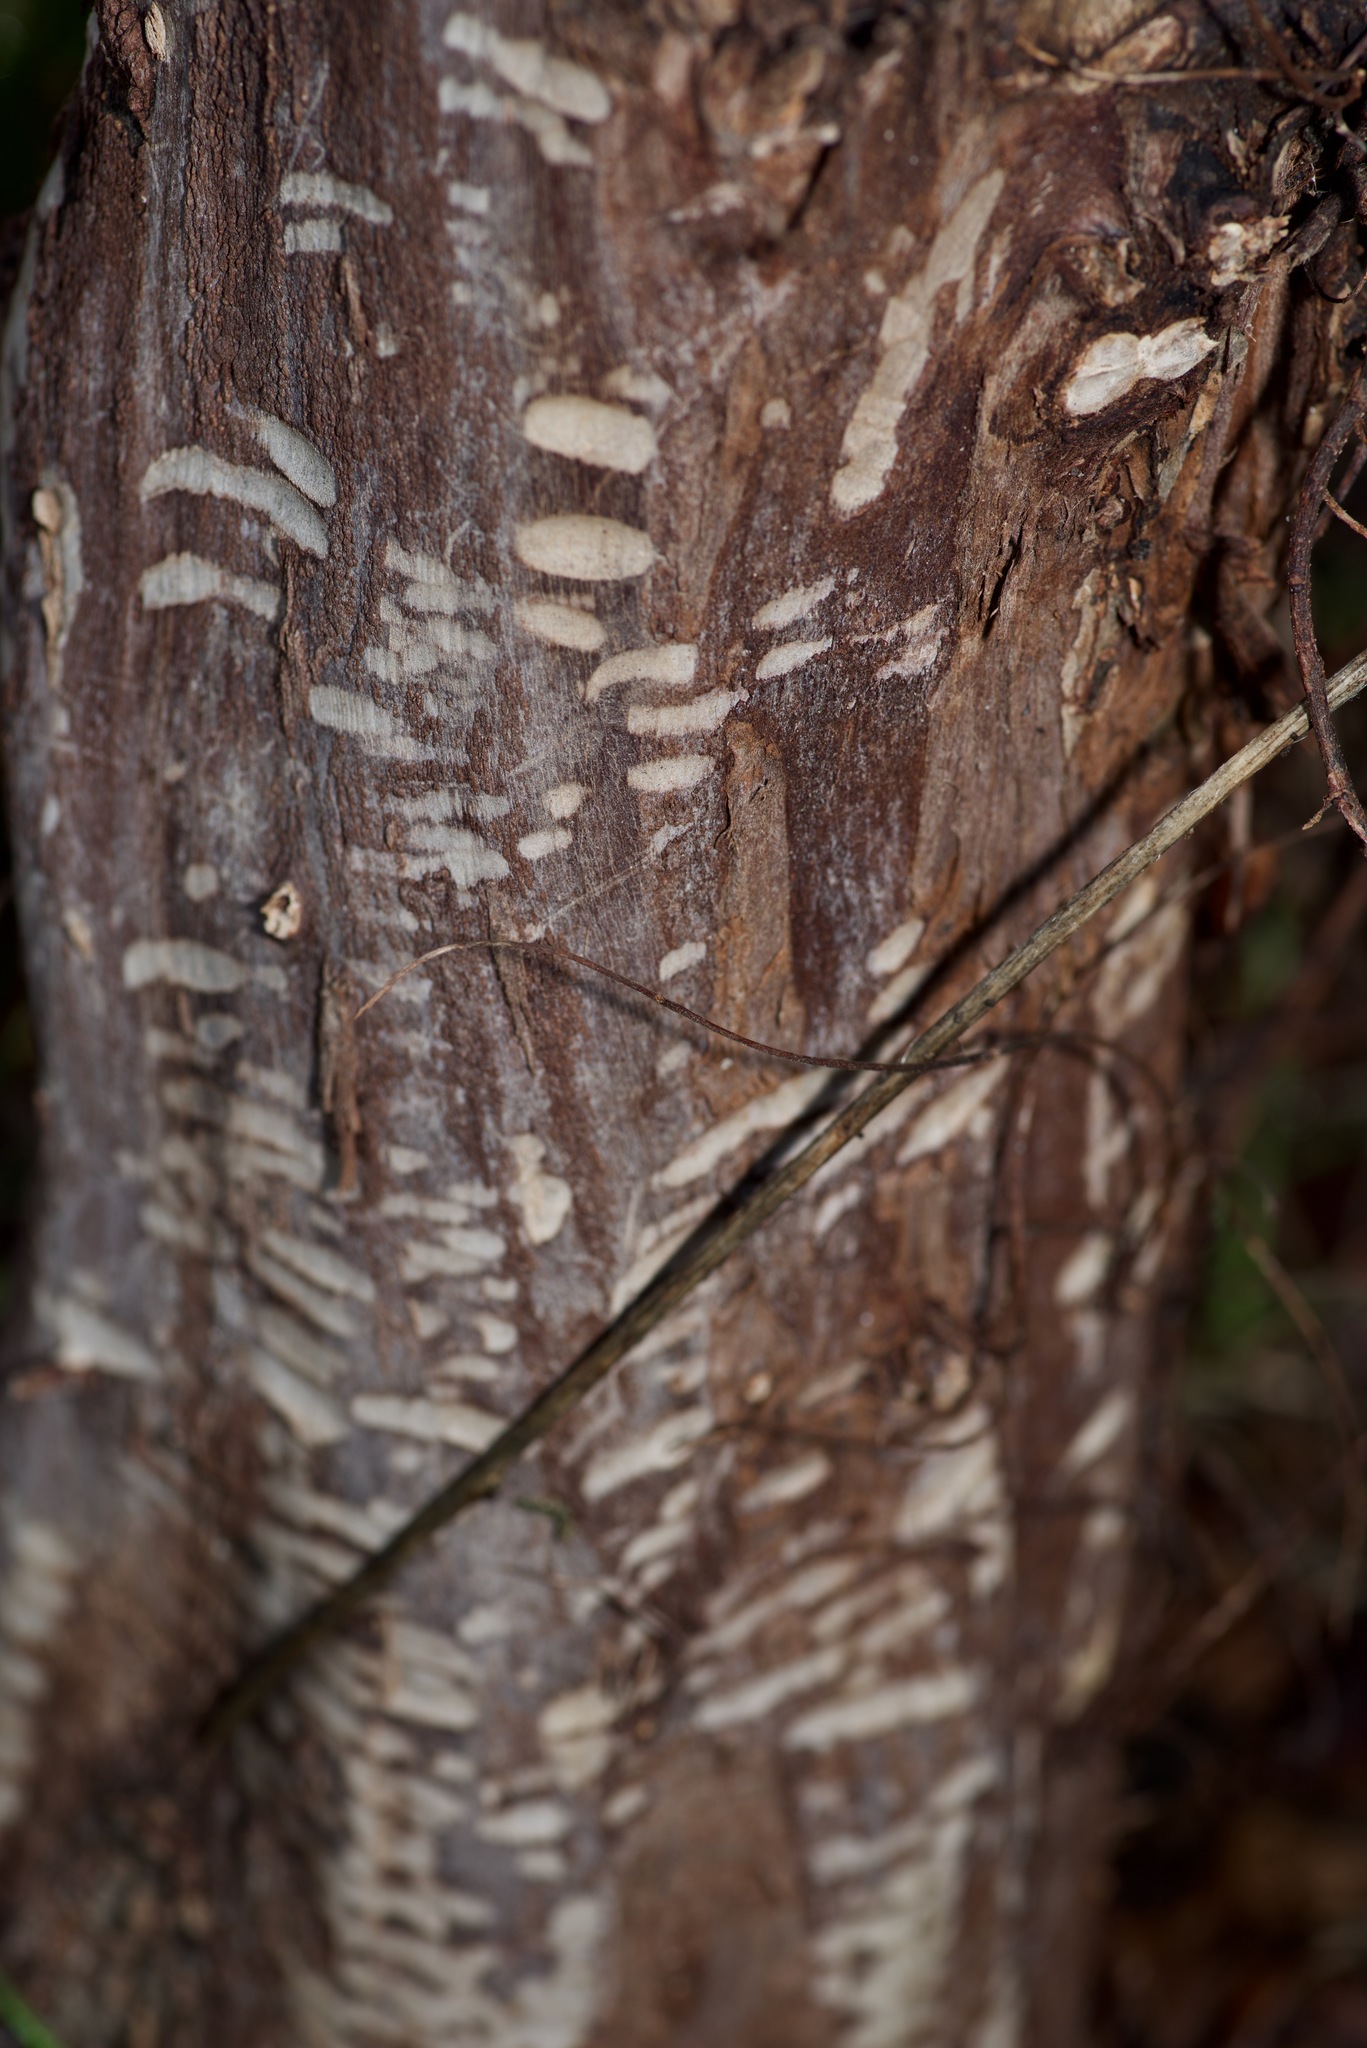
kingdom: Animalia
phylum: Chordata
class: Mammalia
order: Rodentia
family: Castoridae
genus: Castor
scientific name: Castor canadensis
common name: American beaver
